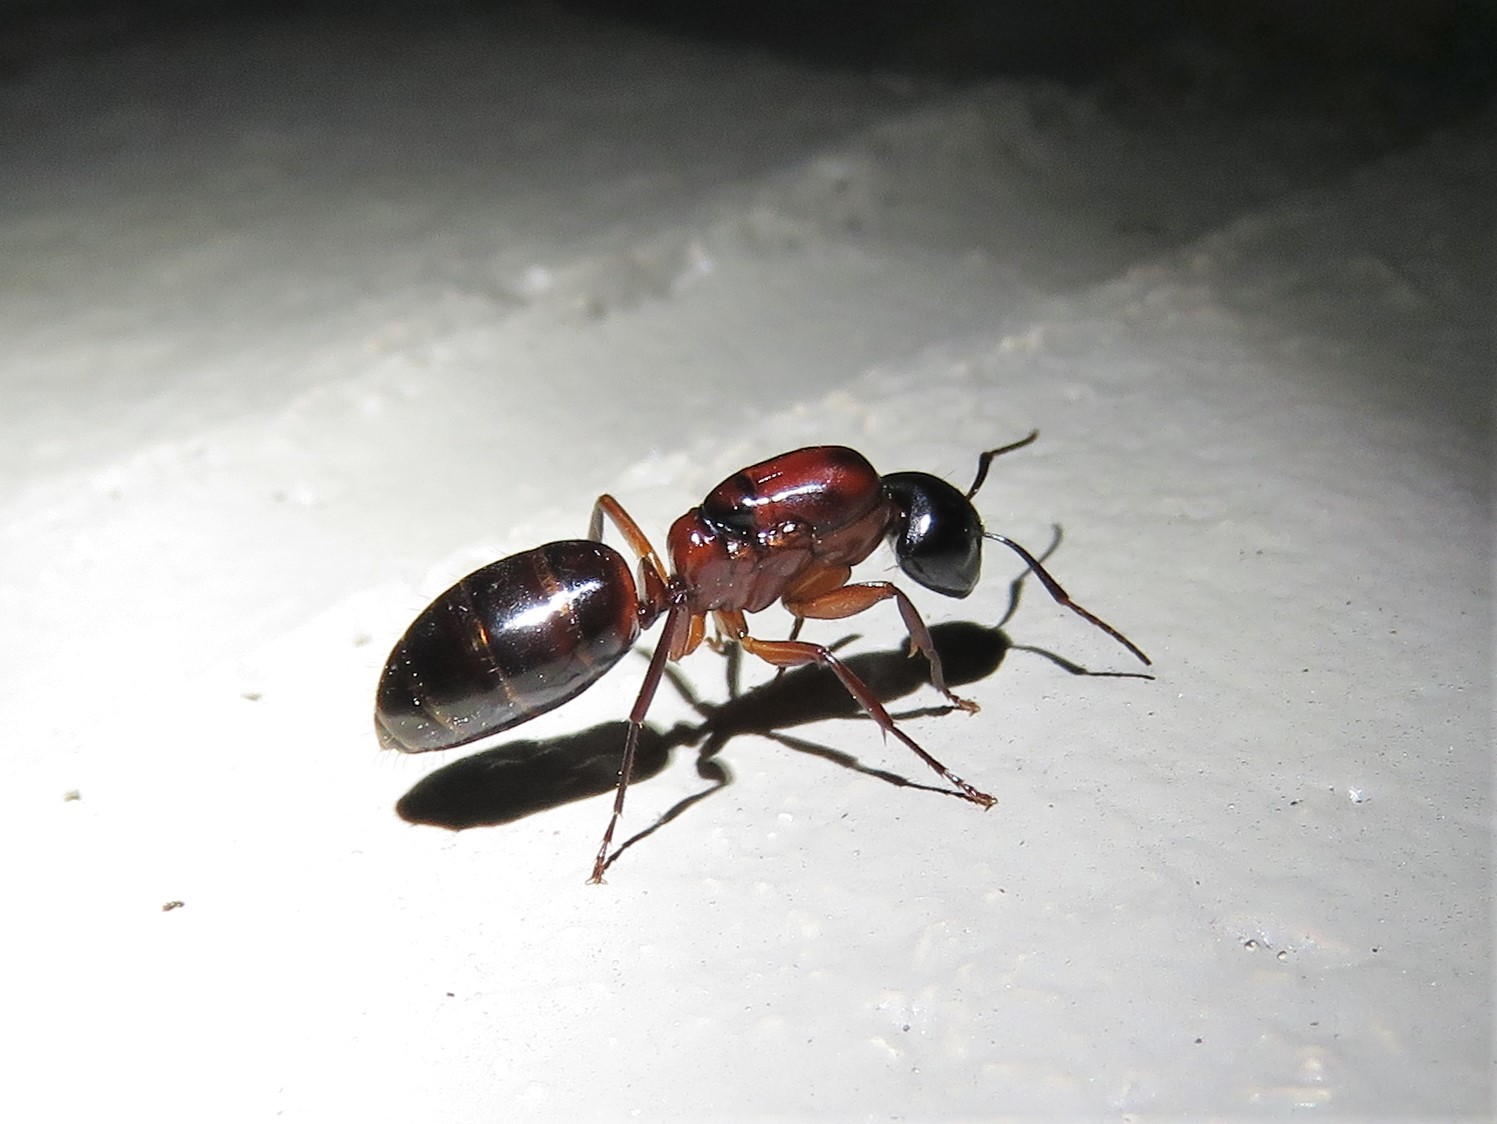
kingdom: Animalia
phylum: Arthropoda
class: Insecta
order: Hymenoptera
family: Formicidae
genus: Camponotus
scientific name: Camponotus texanus
